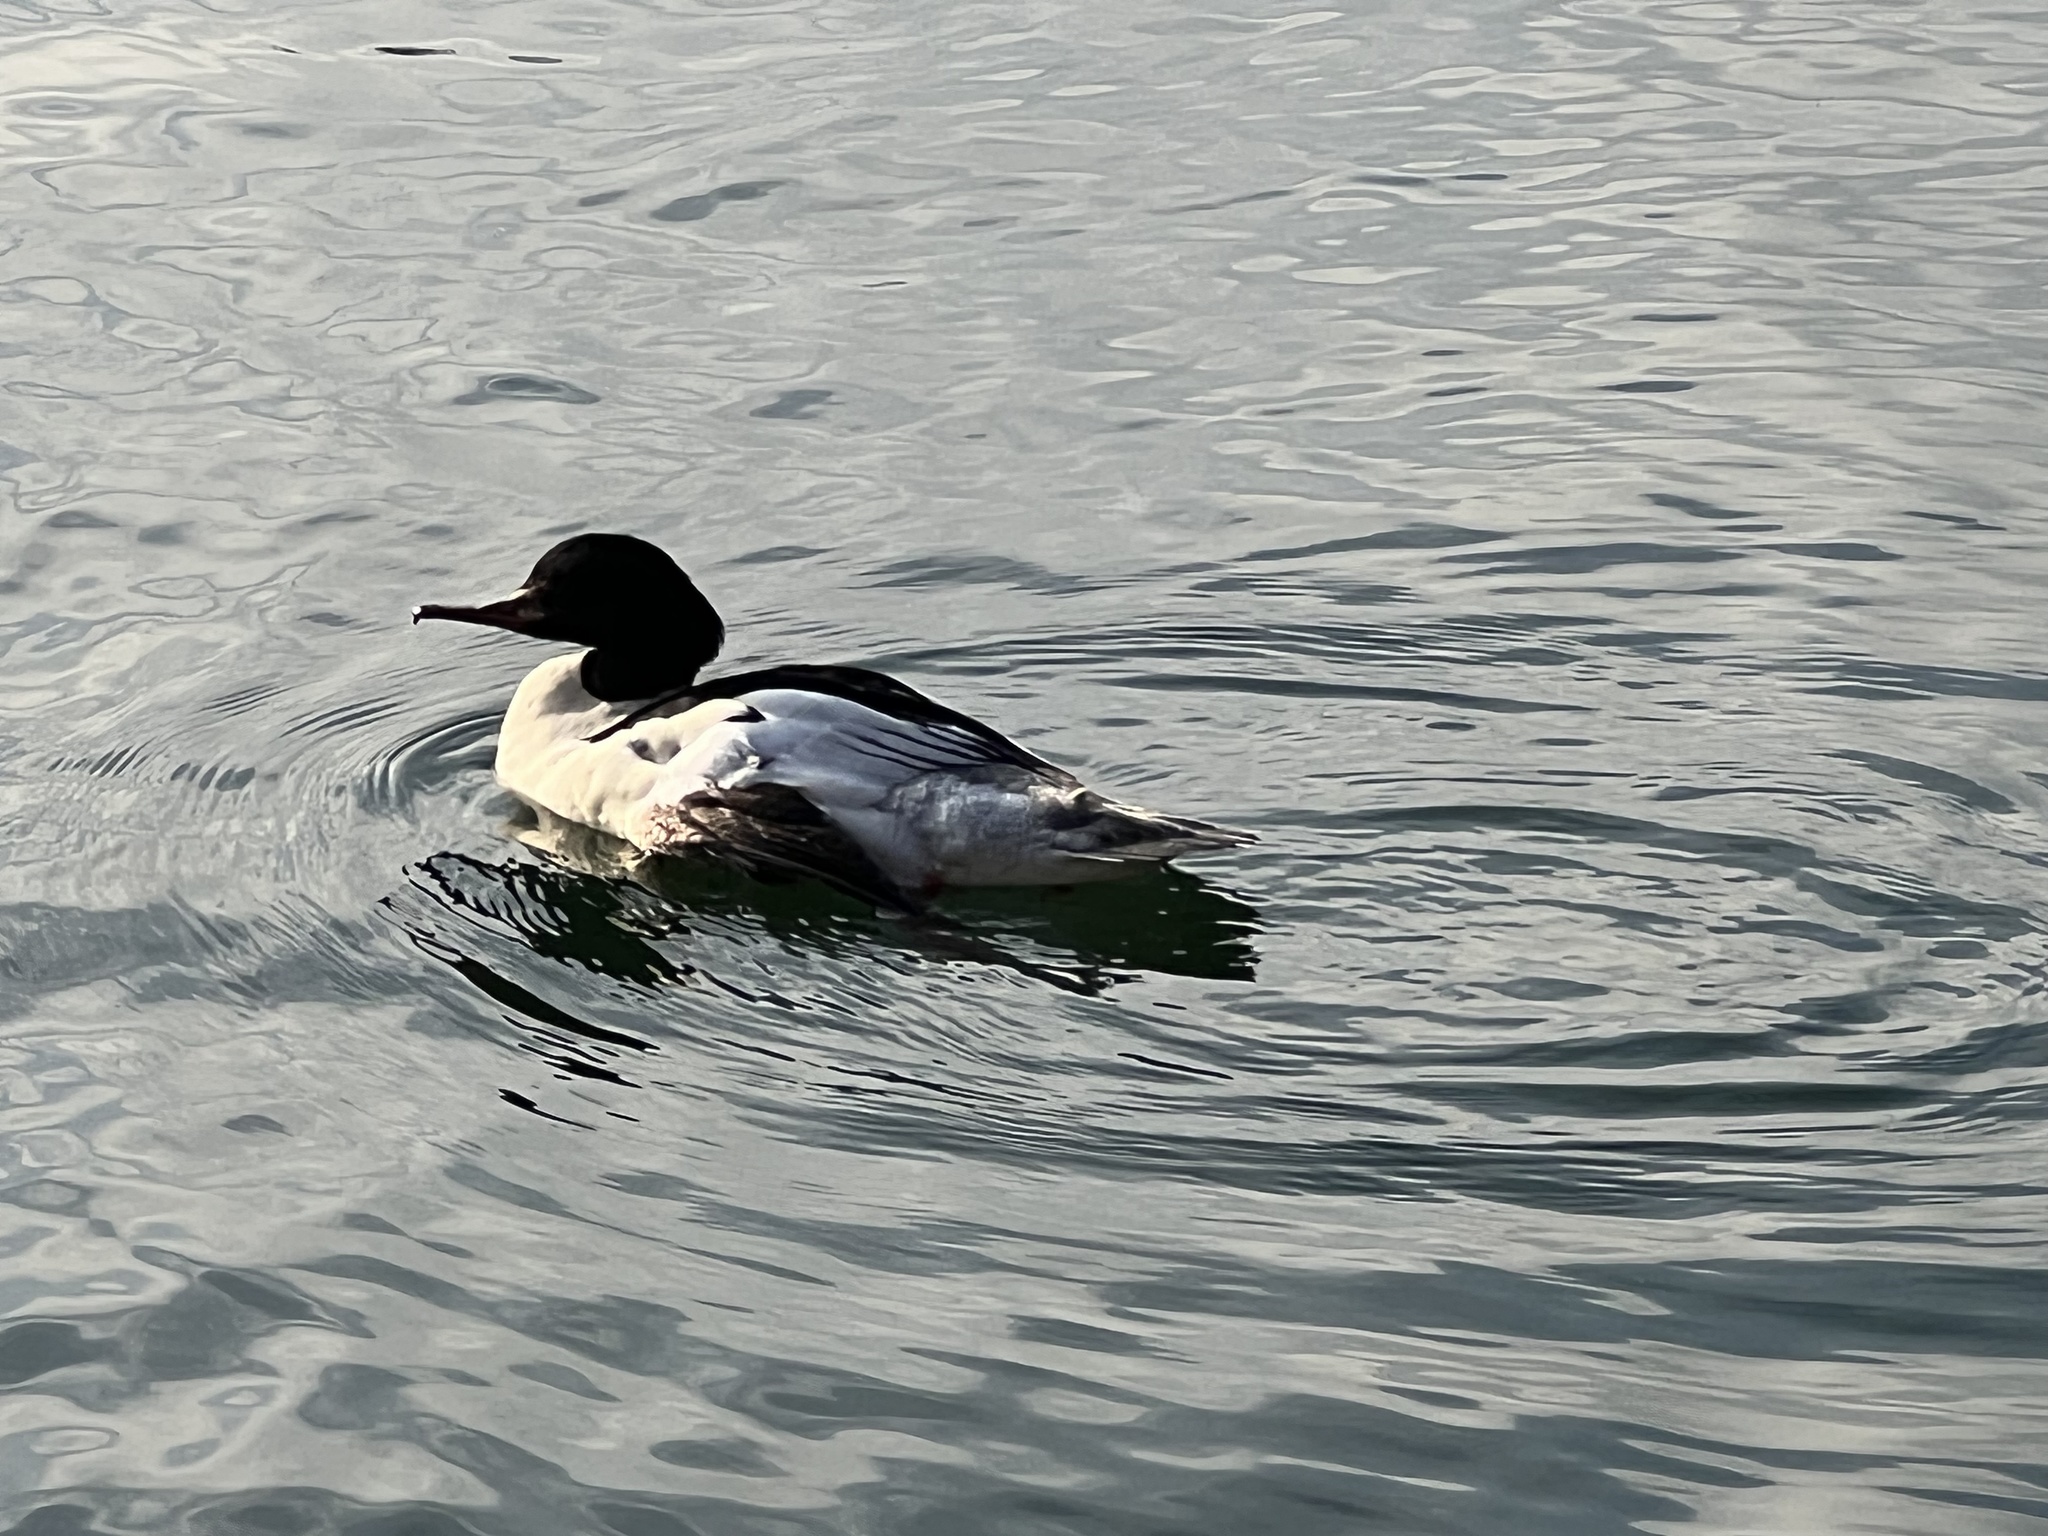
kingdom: Animalia
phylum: Chordata
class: Aves
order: Anseriformes
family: Anatidae
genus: Mergus
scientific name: Mergus merganser
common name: Common merganser
